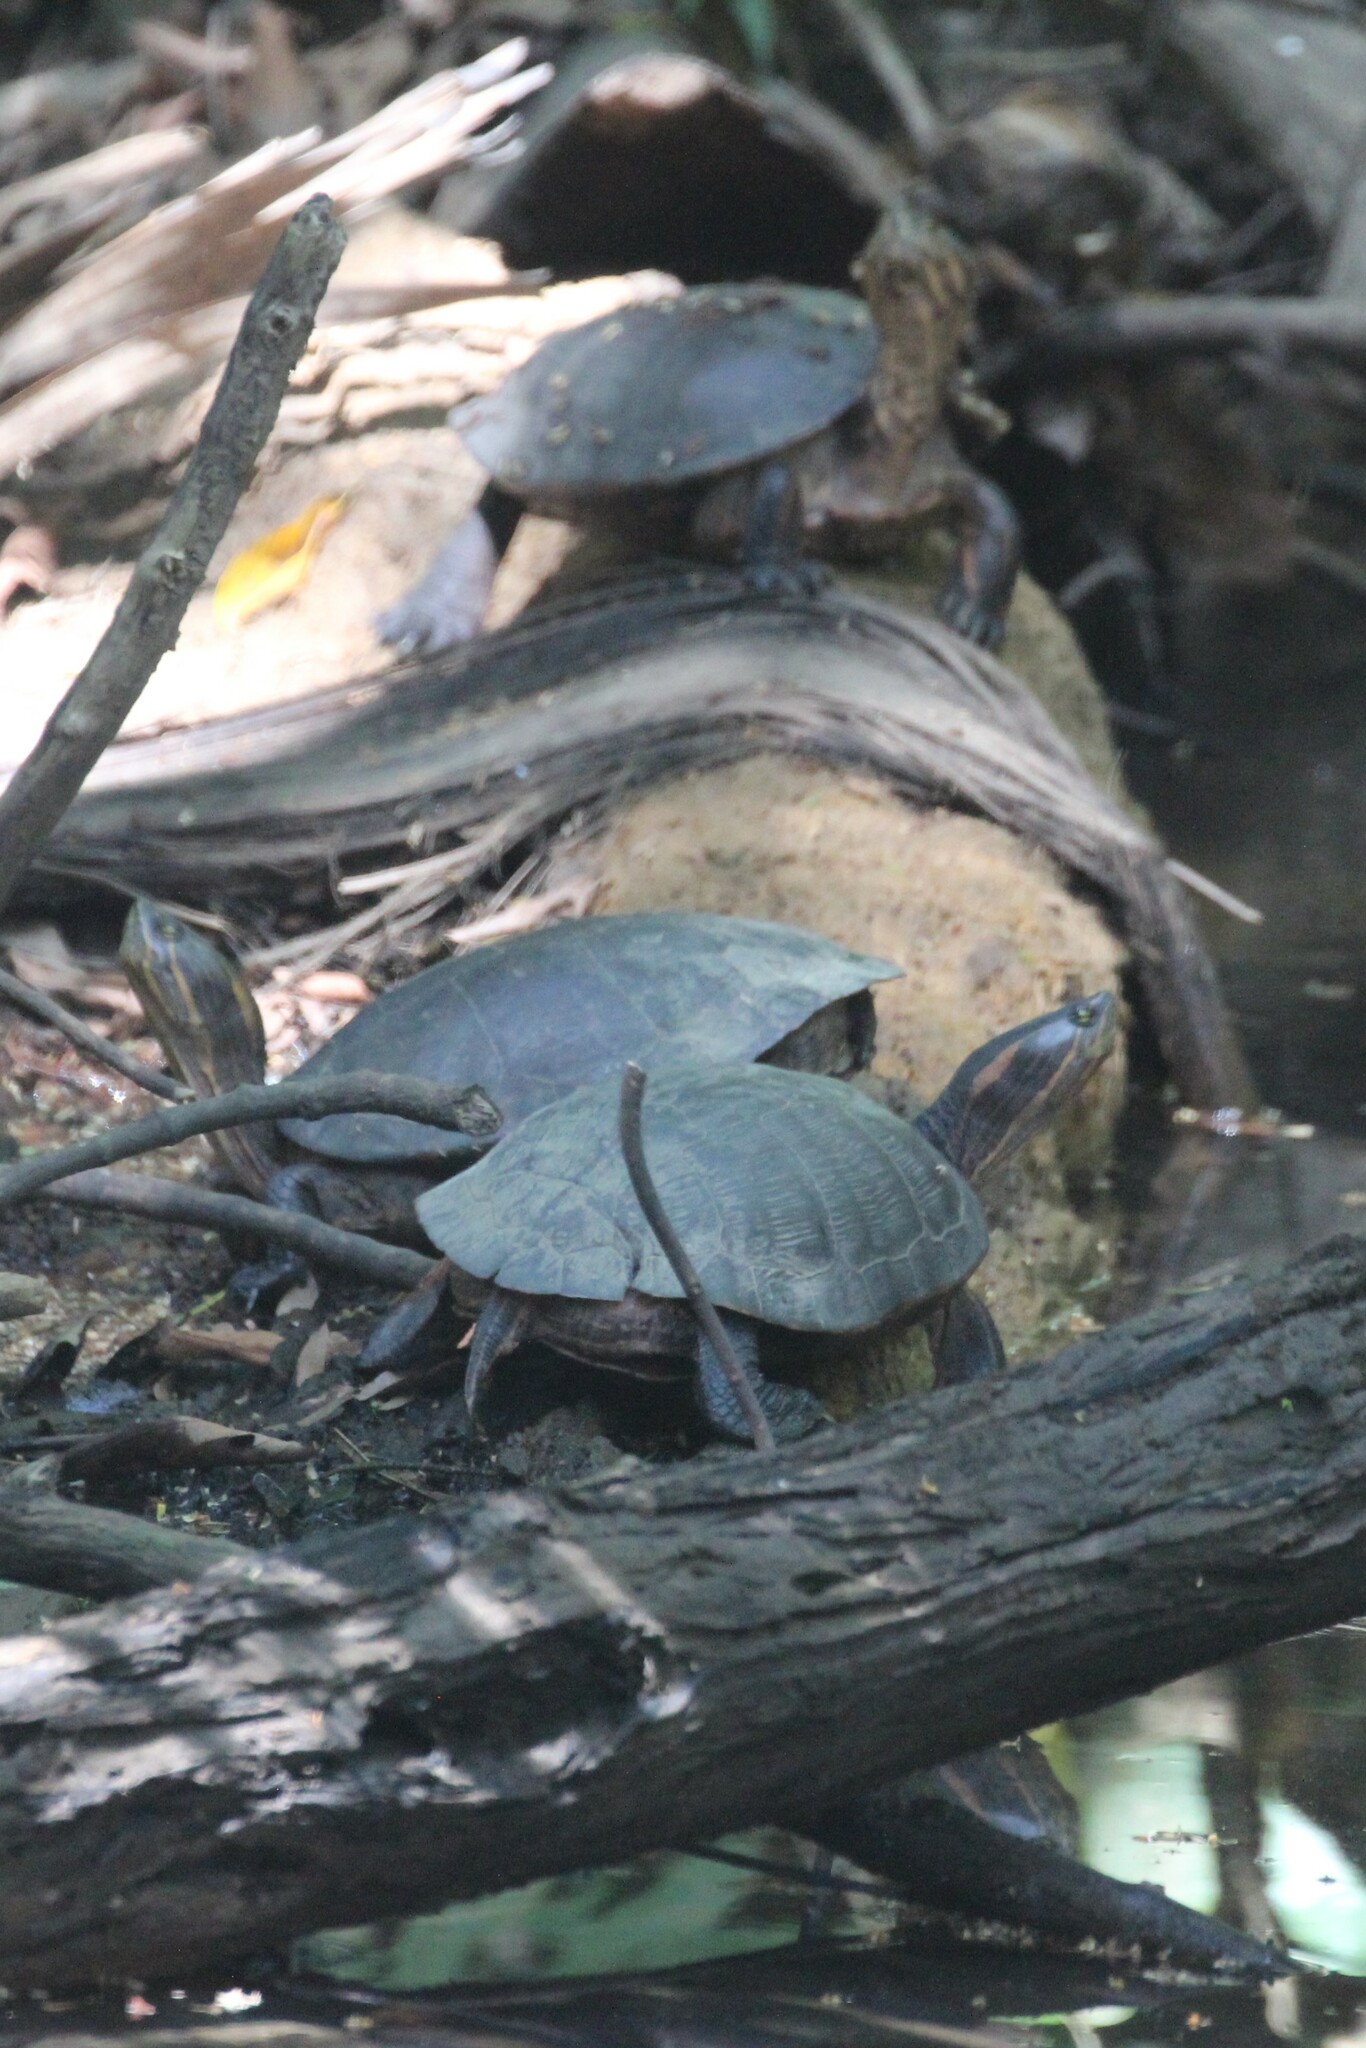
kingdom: Animalia
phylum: Chordata
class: Testudines
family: Emydidae
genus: Trachemys
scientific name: Trachemys venusta
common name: Mesoamerican slider
